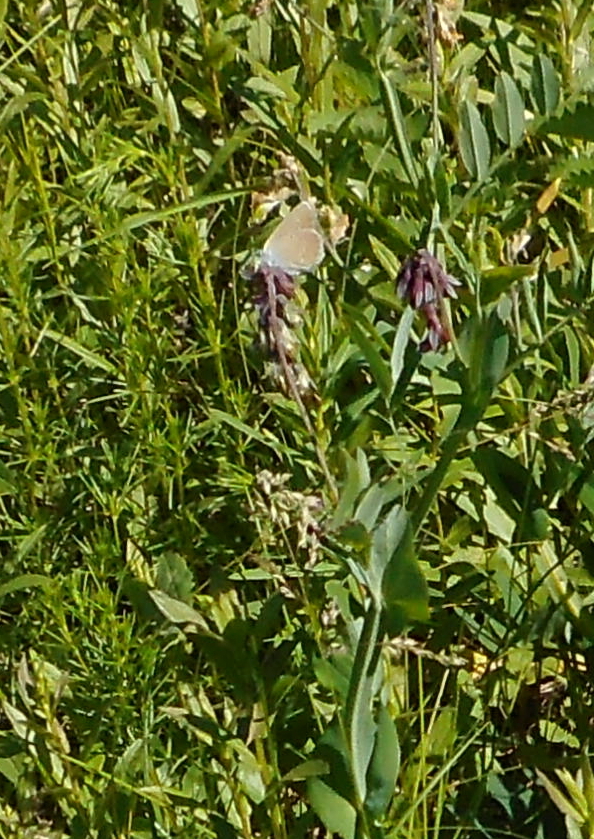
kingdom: Animalia
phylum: Arthropoda
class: Insecta
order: Lepidoptera
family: Lycaenidae
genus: Cyaniris
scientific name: Cyaniris semiargus
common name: Mazarine blue
